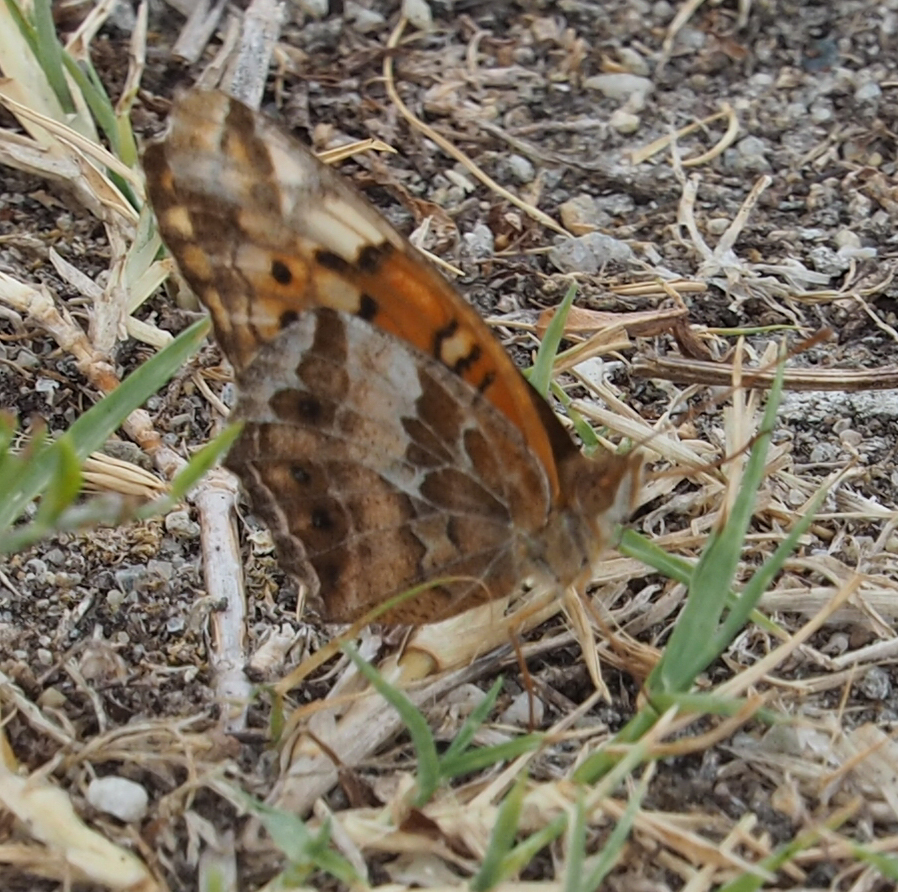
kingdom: Animalia
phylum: Arthropoda
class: Insecta
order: Lepidoptera
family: Nymphalidae
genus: Euptoieta
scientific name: Euptoieta claudia
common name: Variegated fritillary
